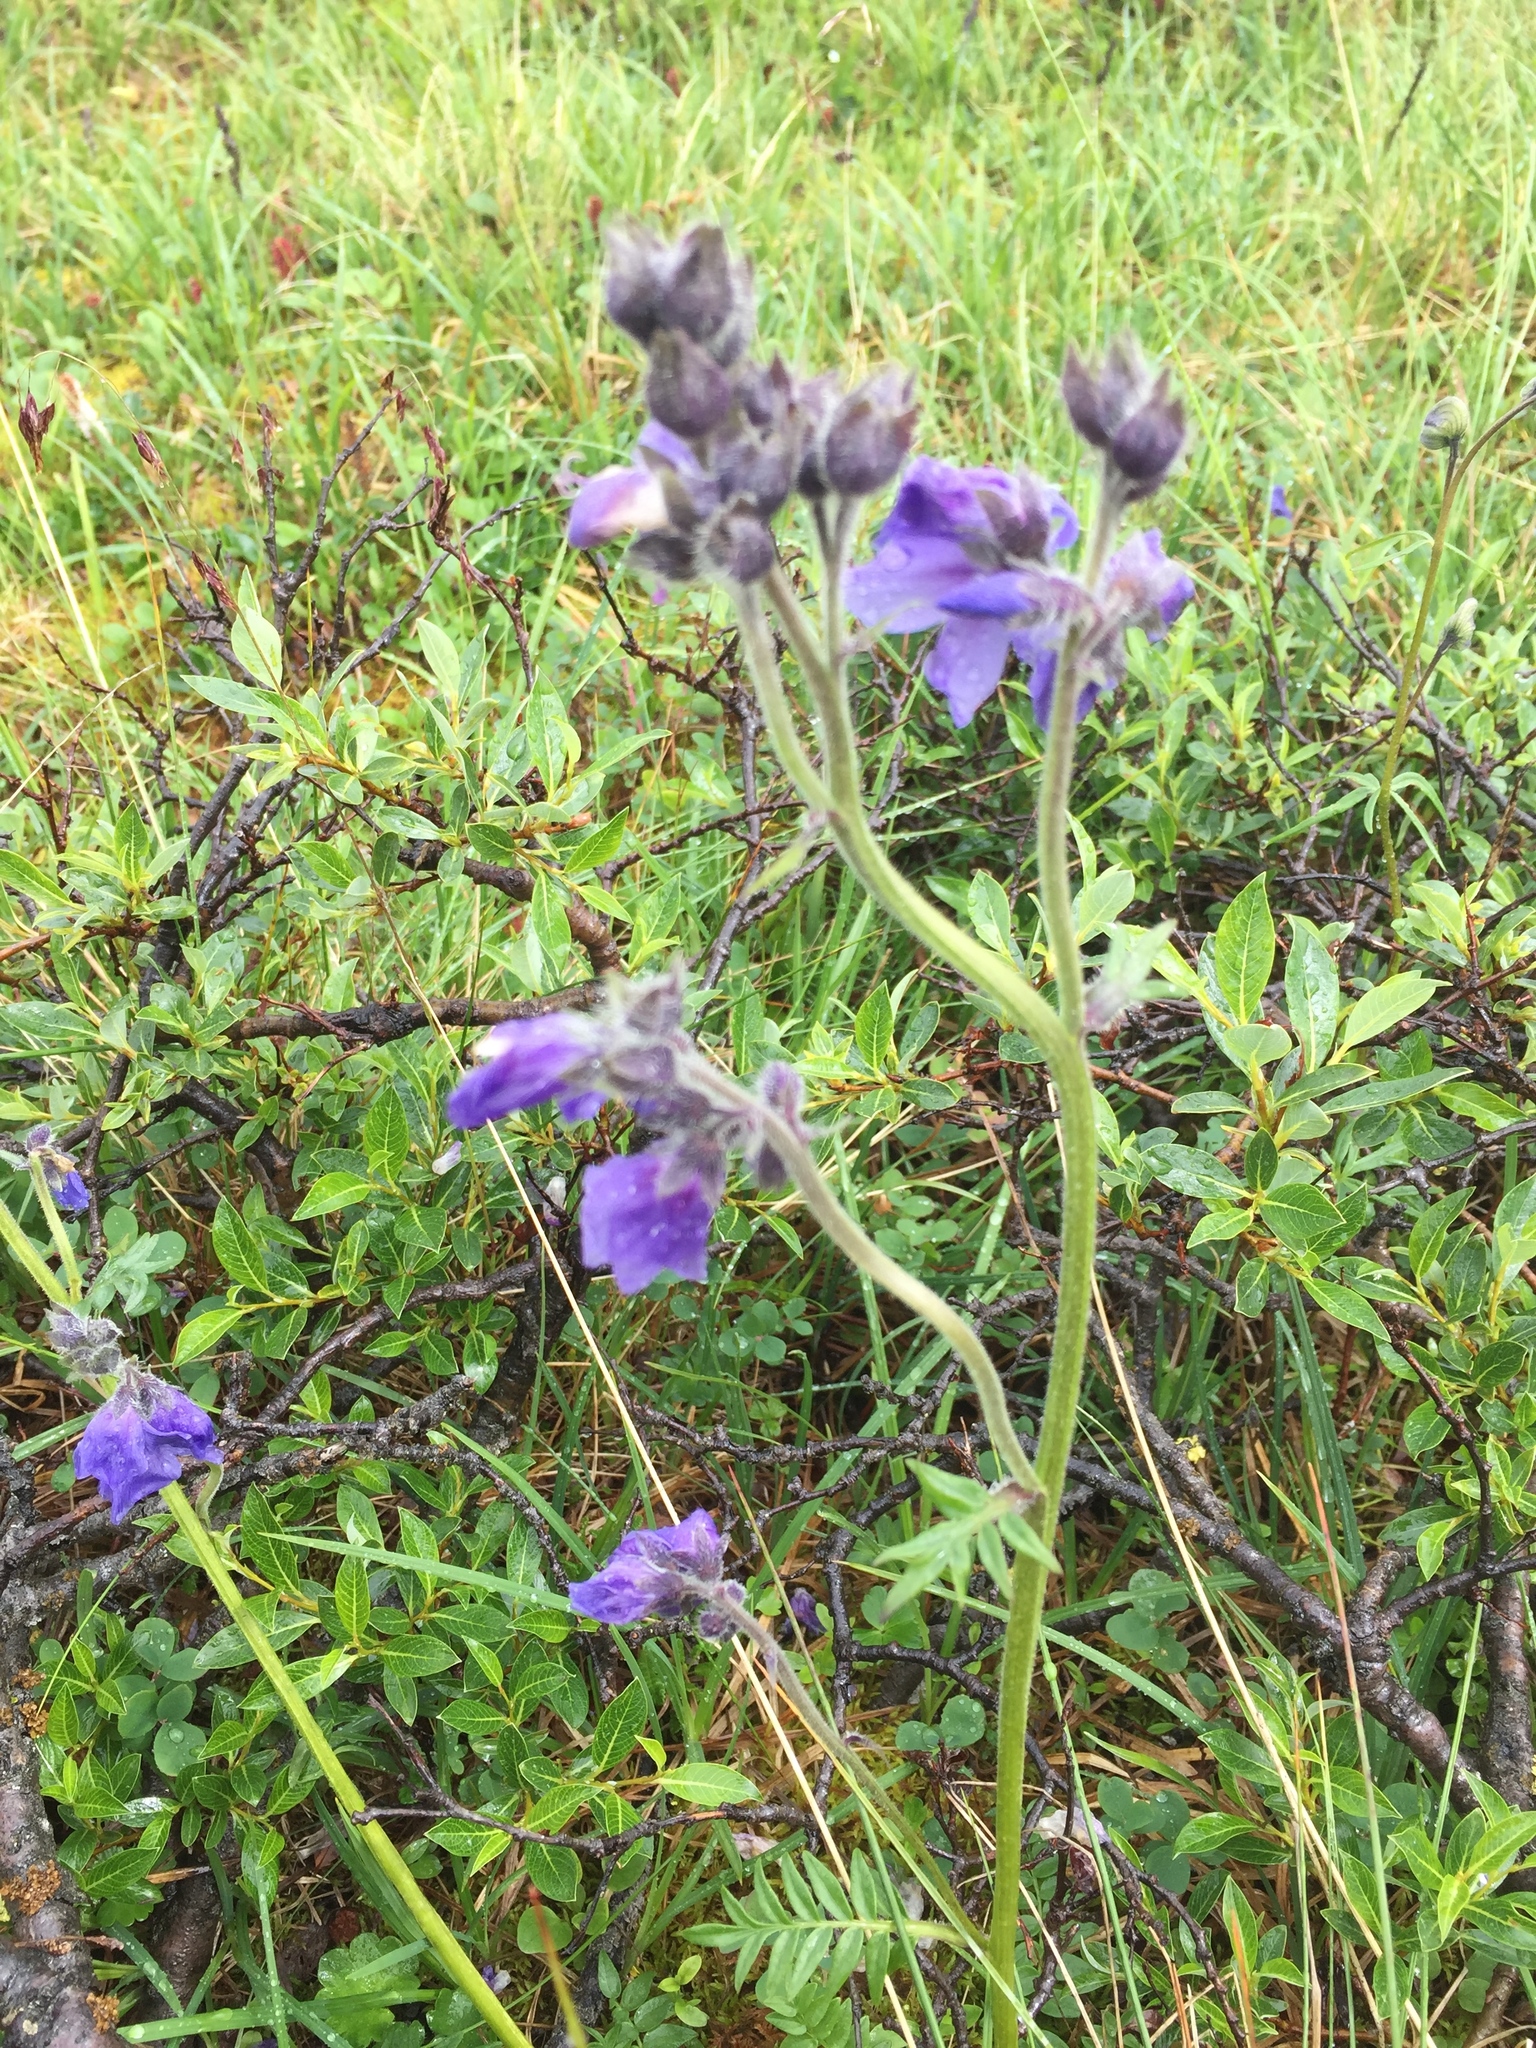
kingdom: Plantae
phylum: Tracheophyta
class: Magnoliopsida
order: Ericales
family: Polemoniaceae
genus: Polemonium
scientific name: Polemonium acutiflorum
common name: Tall jacob's-ladder
